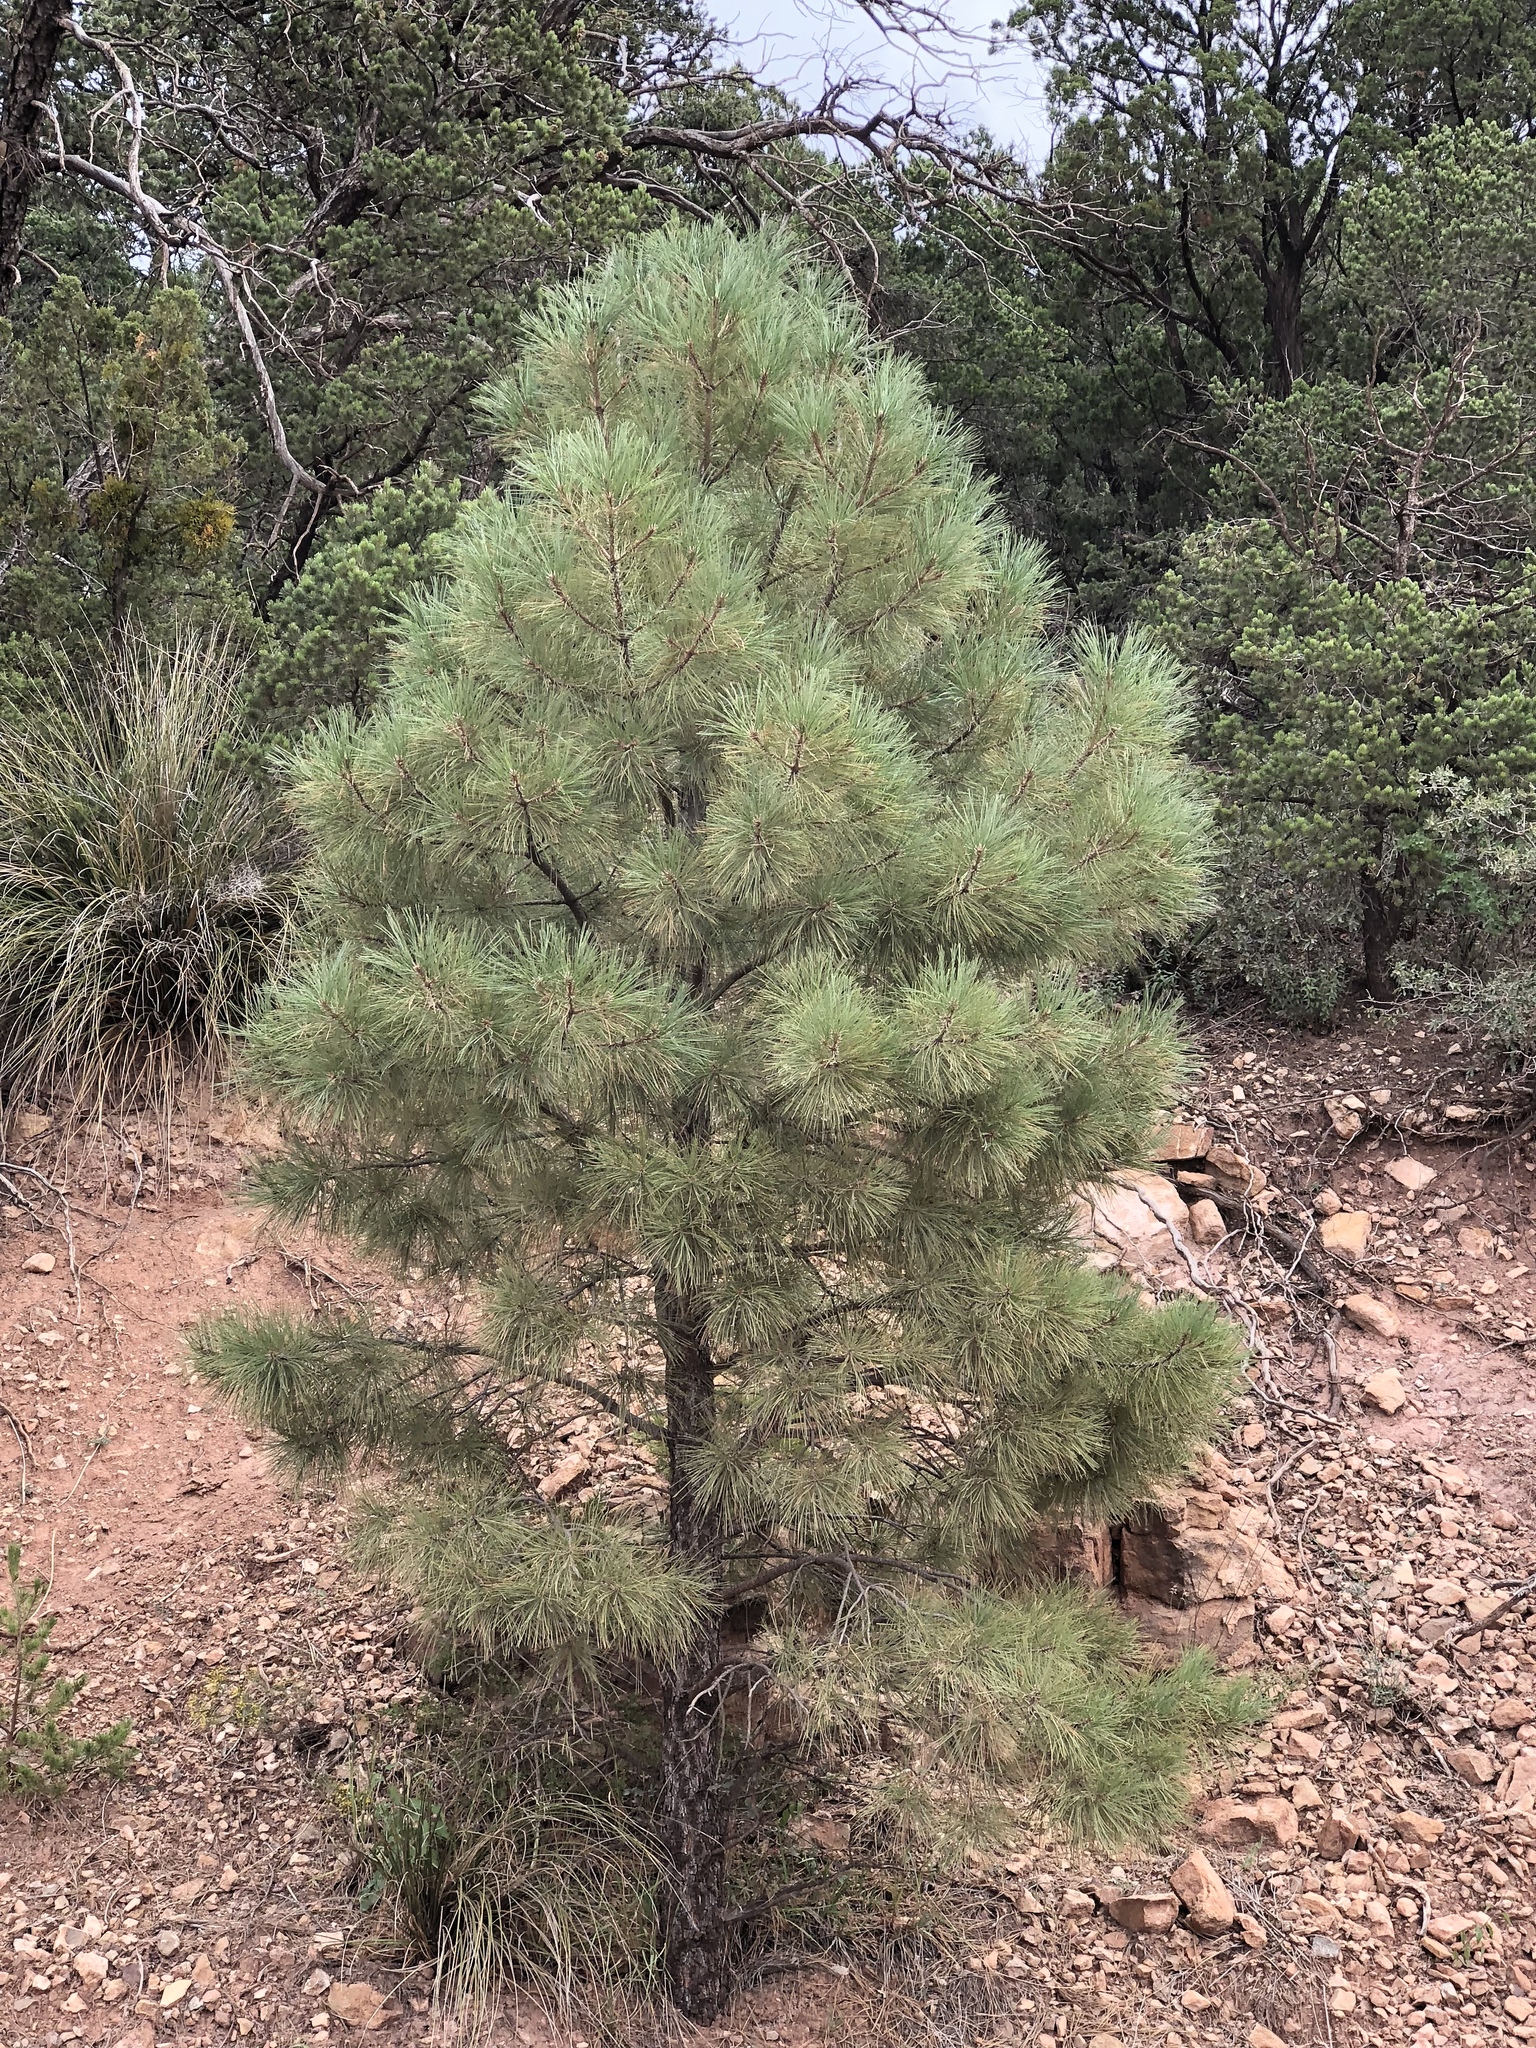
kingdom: Plantae
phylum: Tracheophyta
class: Pinopsida
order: Pinales
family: Pinaceae
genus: Pinus
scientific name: Pinus ponderosa
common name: Western yellow-pine
